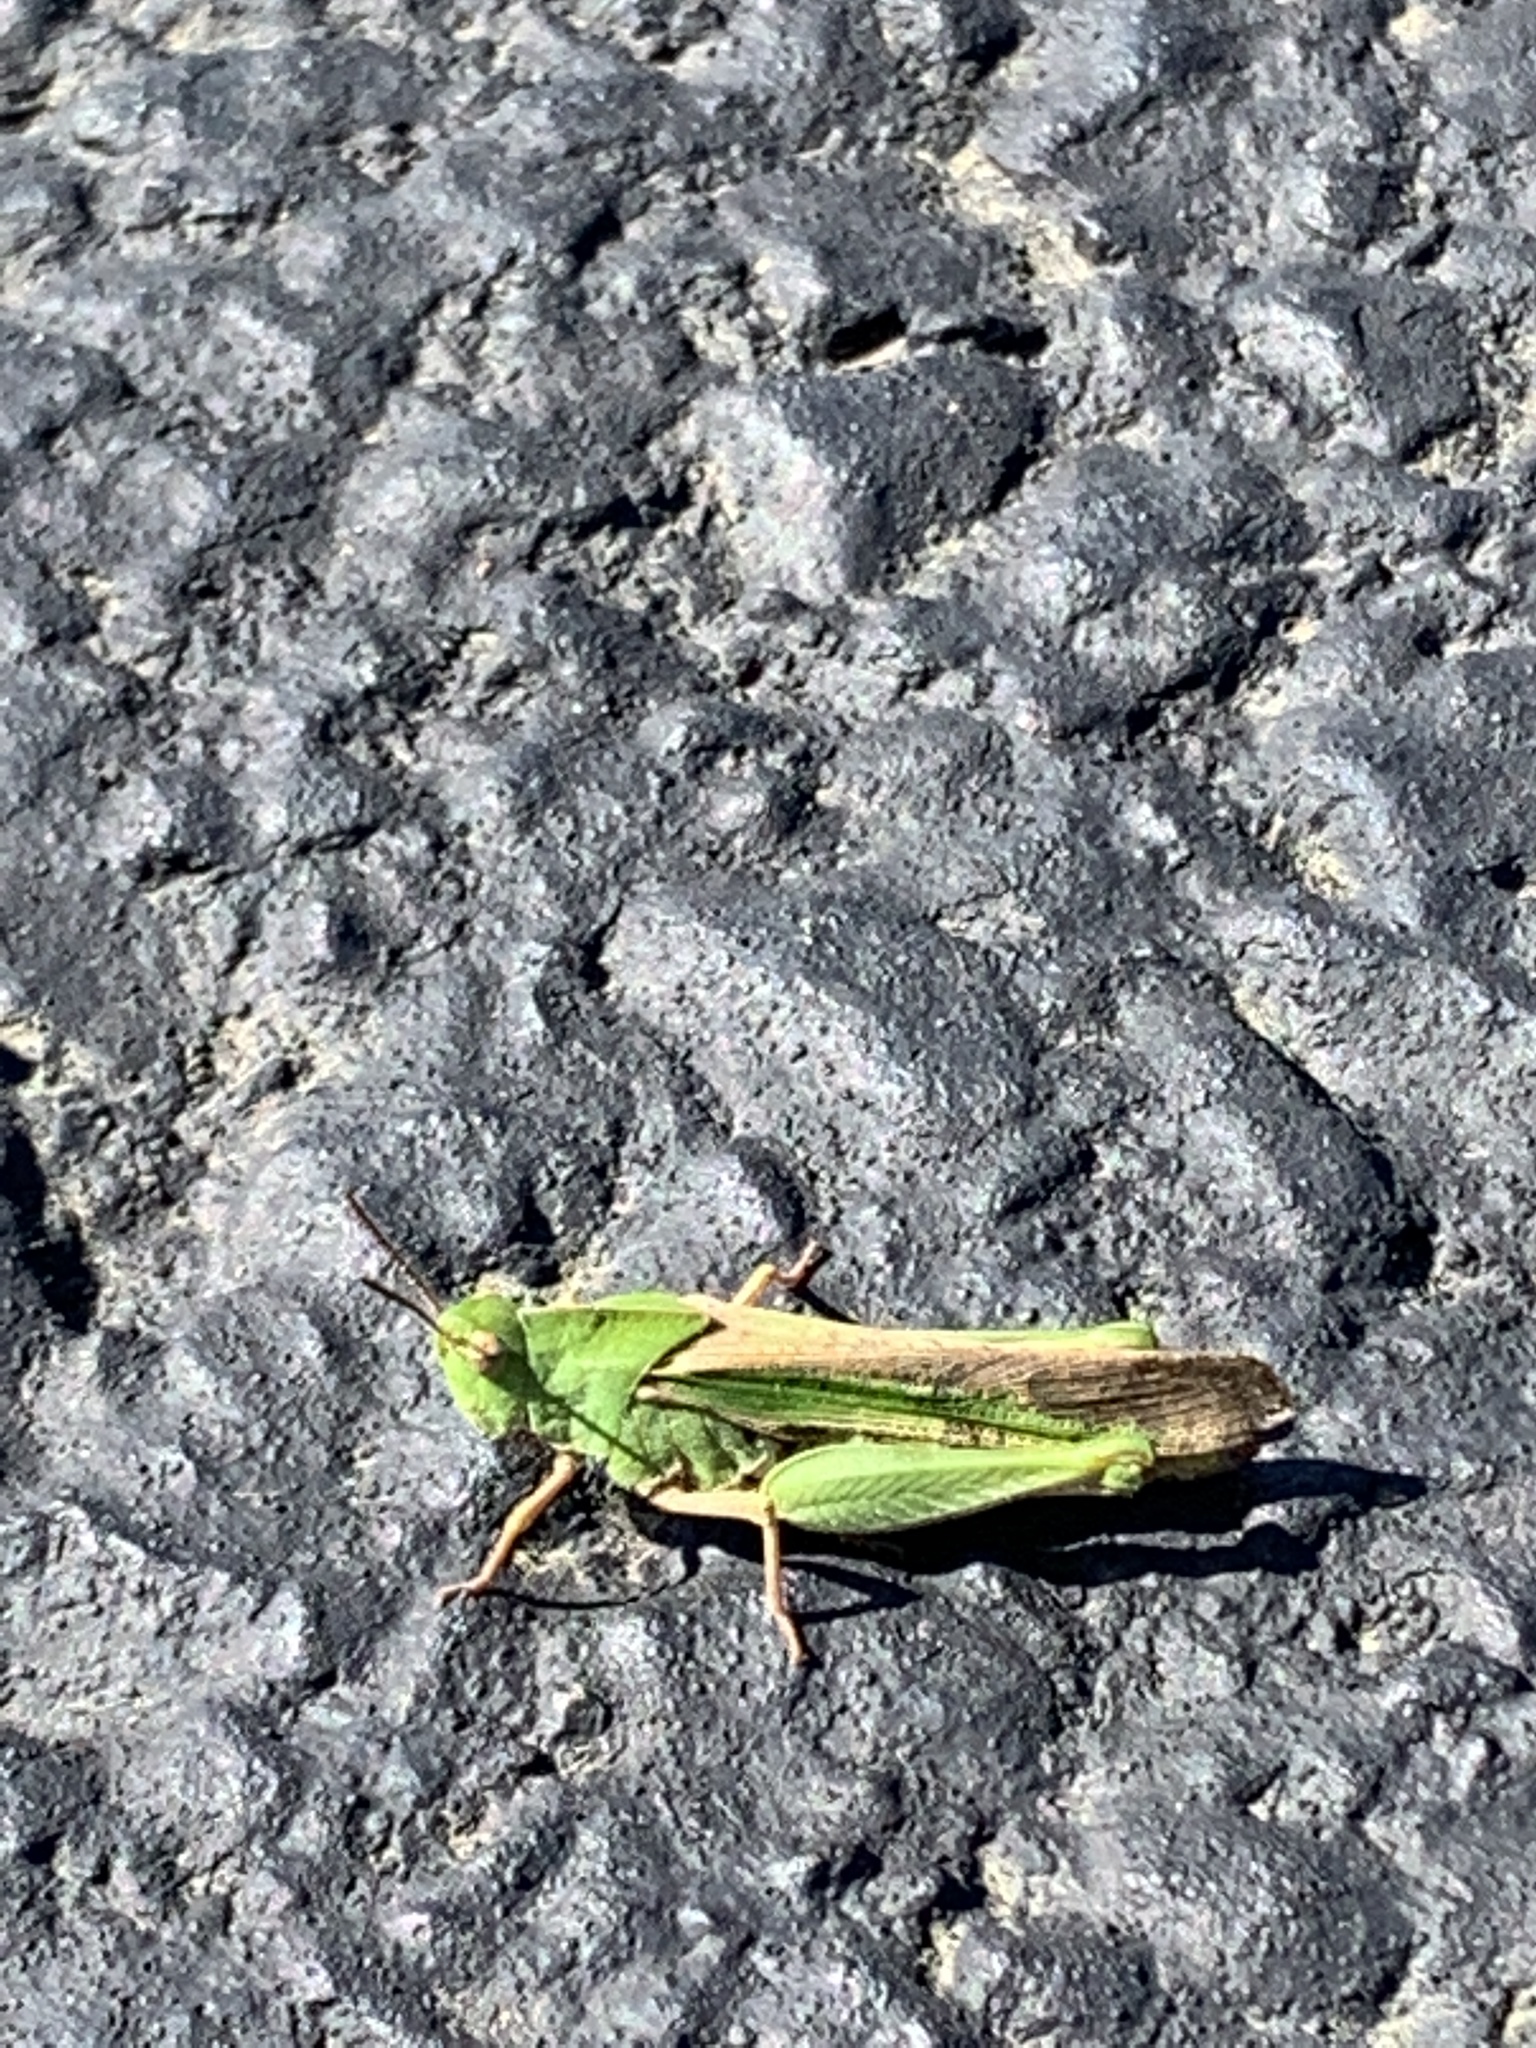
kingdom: Animalia
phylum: Arthropoda
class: Insecta
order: Orthoptera
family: Acrididae
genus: Chortophaga
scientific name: Chortophaga viridifasciata
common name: Green-striped grasshopper
